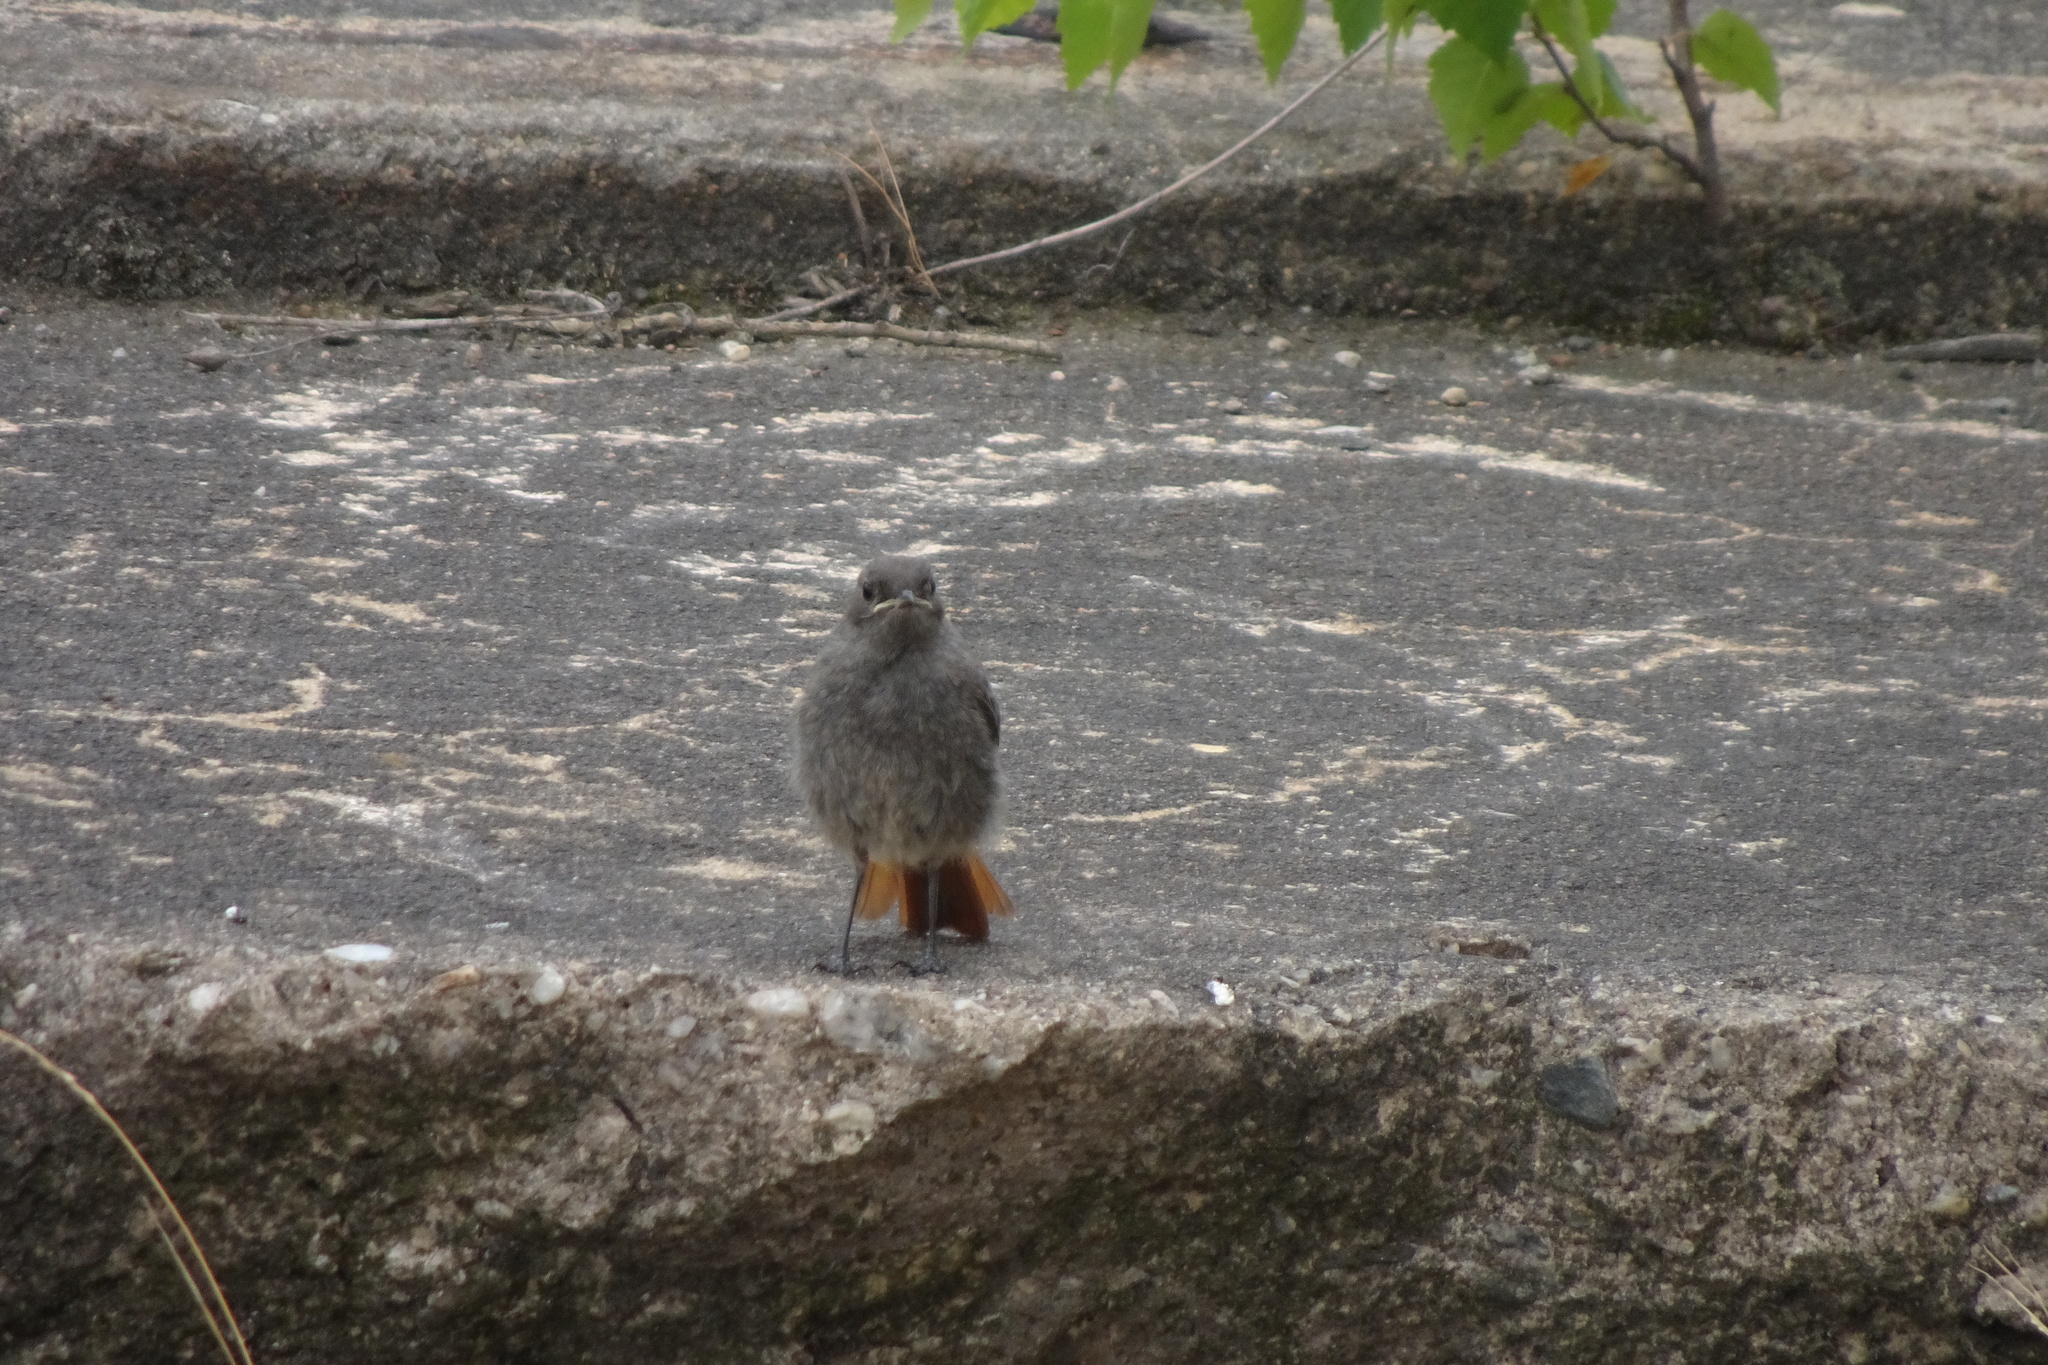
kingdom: Animalia
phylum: Chordata
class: Aves
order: Passeriformes
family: Muscicapidae
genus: Phoenicurus
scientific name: Phoenicurus ochruros
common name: Black redstart
